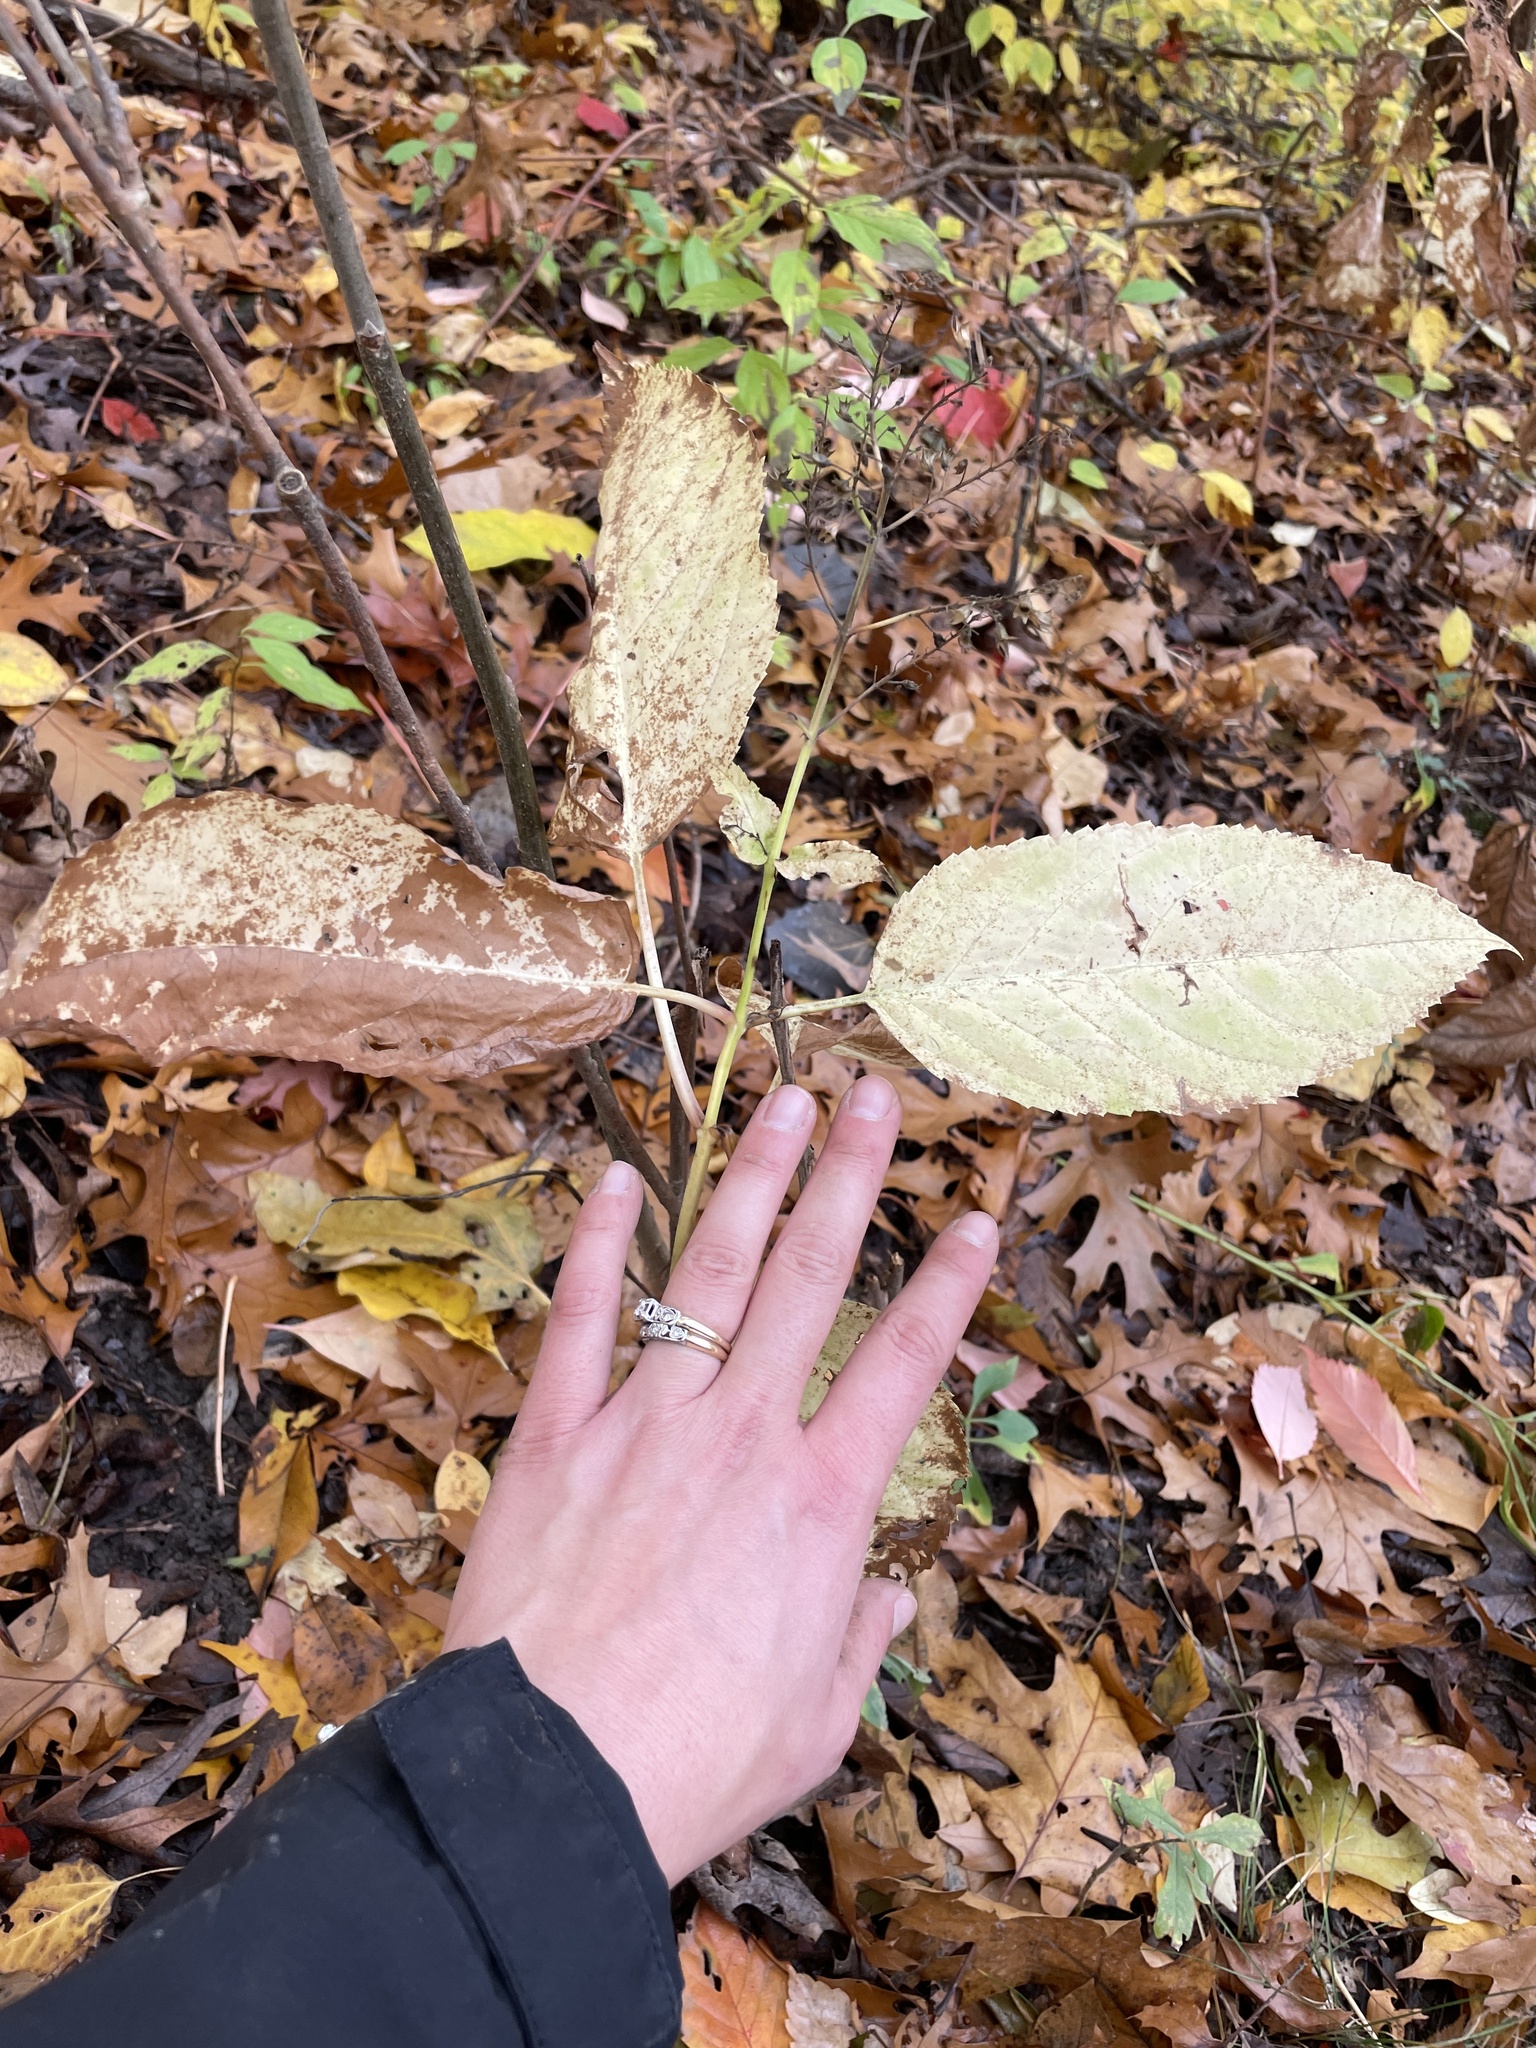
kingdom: Plantae
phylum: Tracheophyta
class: Magnoliopsida
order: Lamiales
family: Lamiaceae
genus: Collinsonia
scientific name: Collinsonia canadensis
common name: Northern horsebalm
